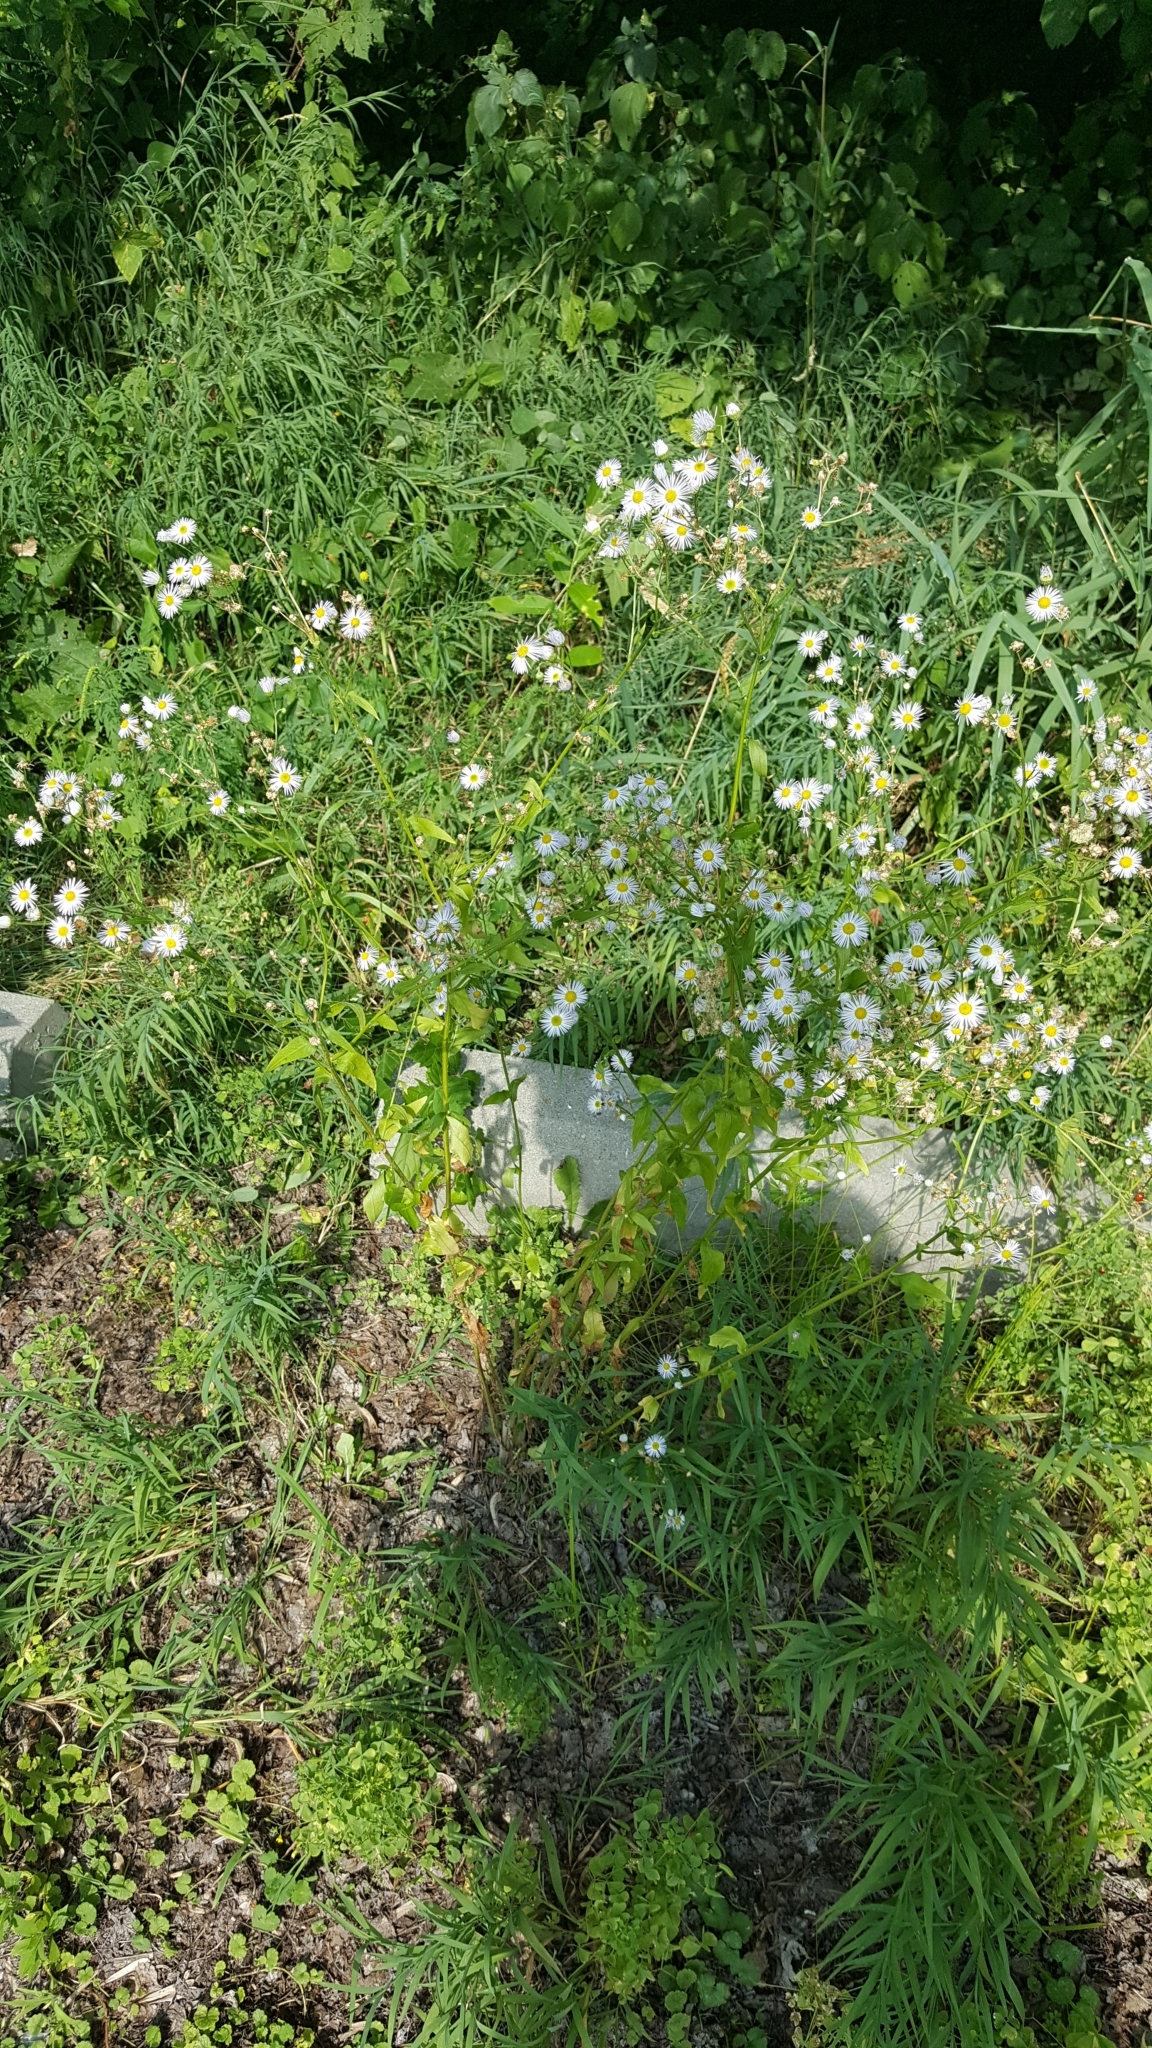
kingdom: Plantae
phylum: Tracheophyta
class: Magnoliopsida
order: Asterales
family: Asteraceae
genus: Erigeron
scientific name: Erigeron annuus
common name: Tall fleabane
